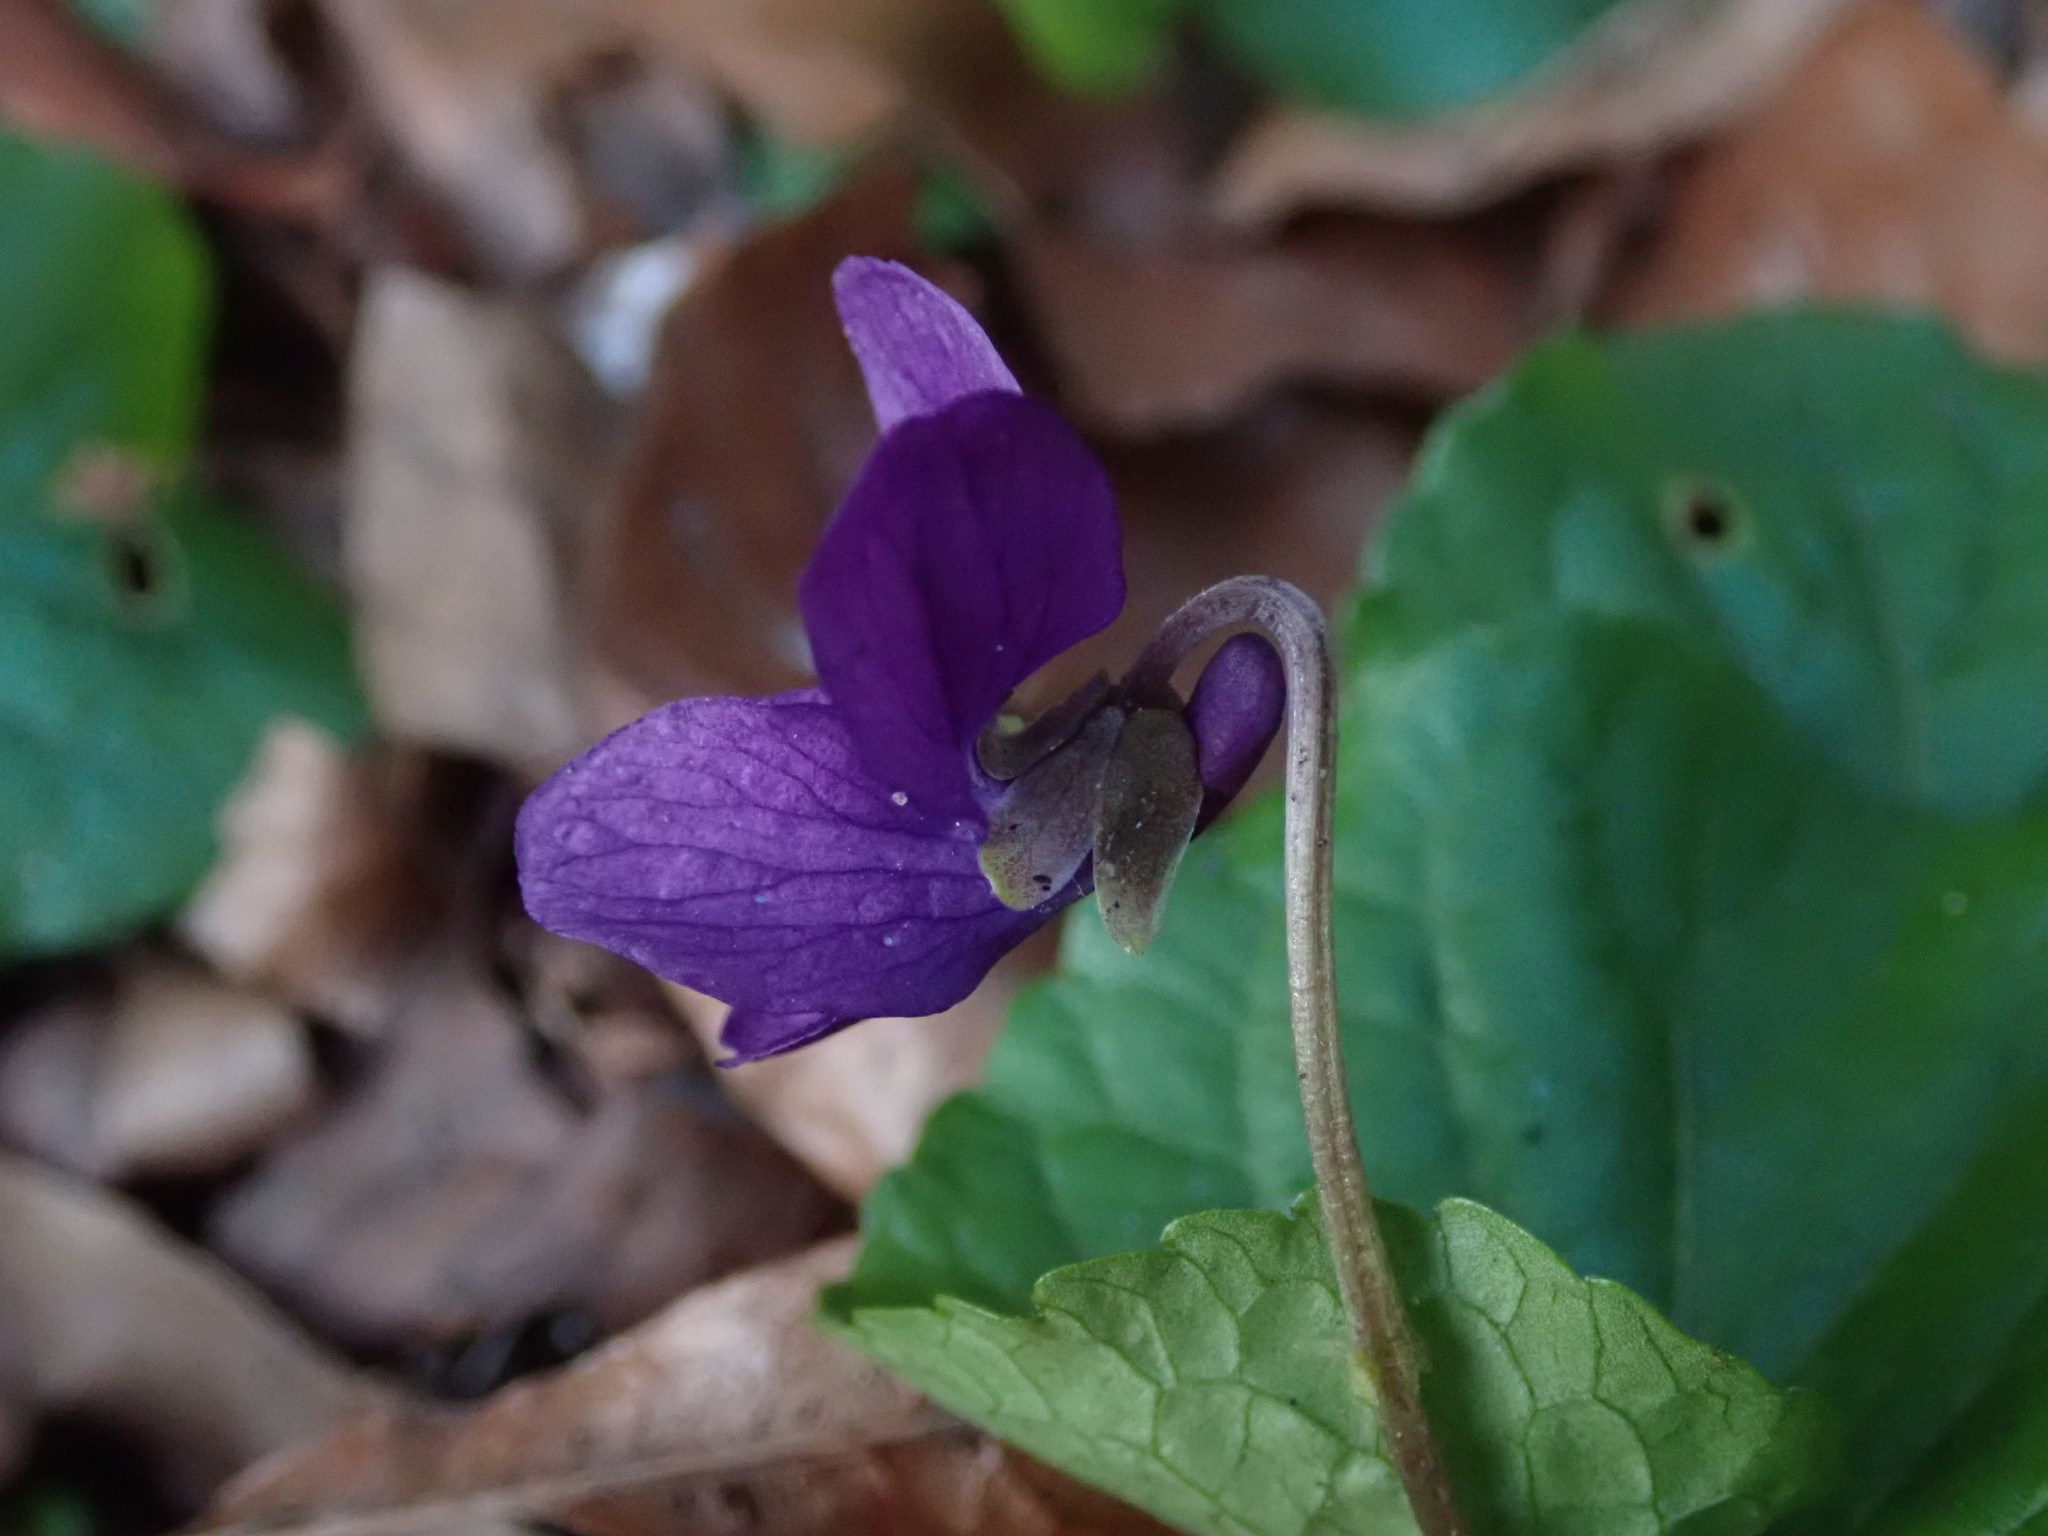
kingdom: Plantae
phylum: Tracheophyta
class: Magnoliopsida
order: Malpighiales
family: Violaceae
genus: Viola
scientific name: Viola odorata
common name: Sweet violet
